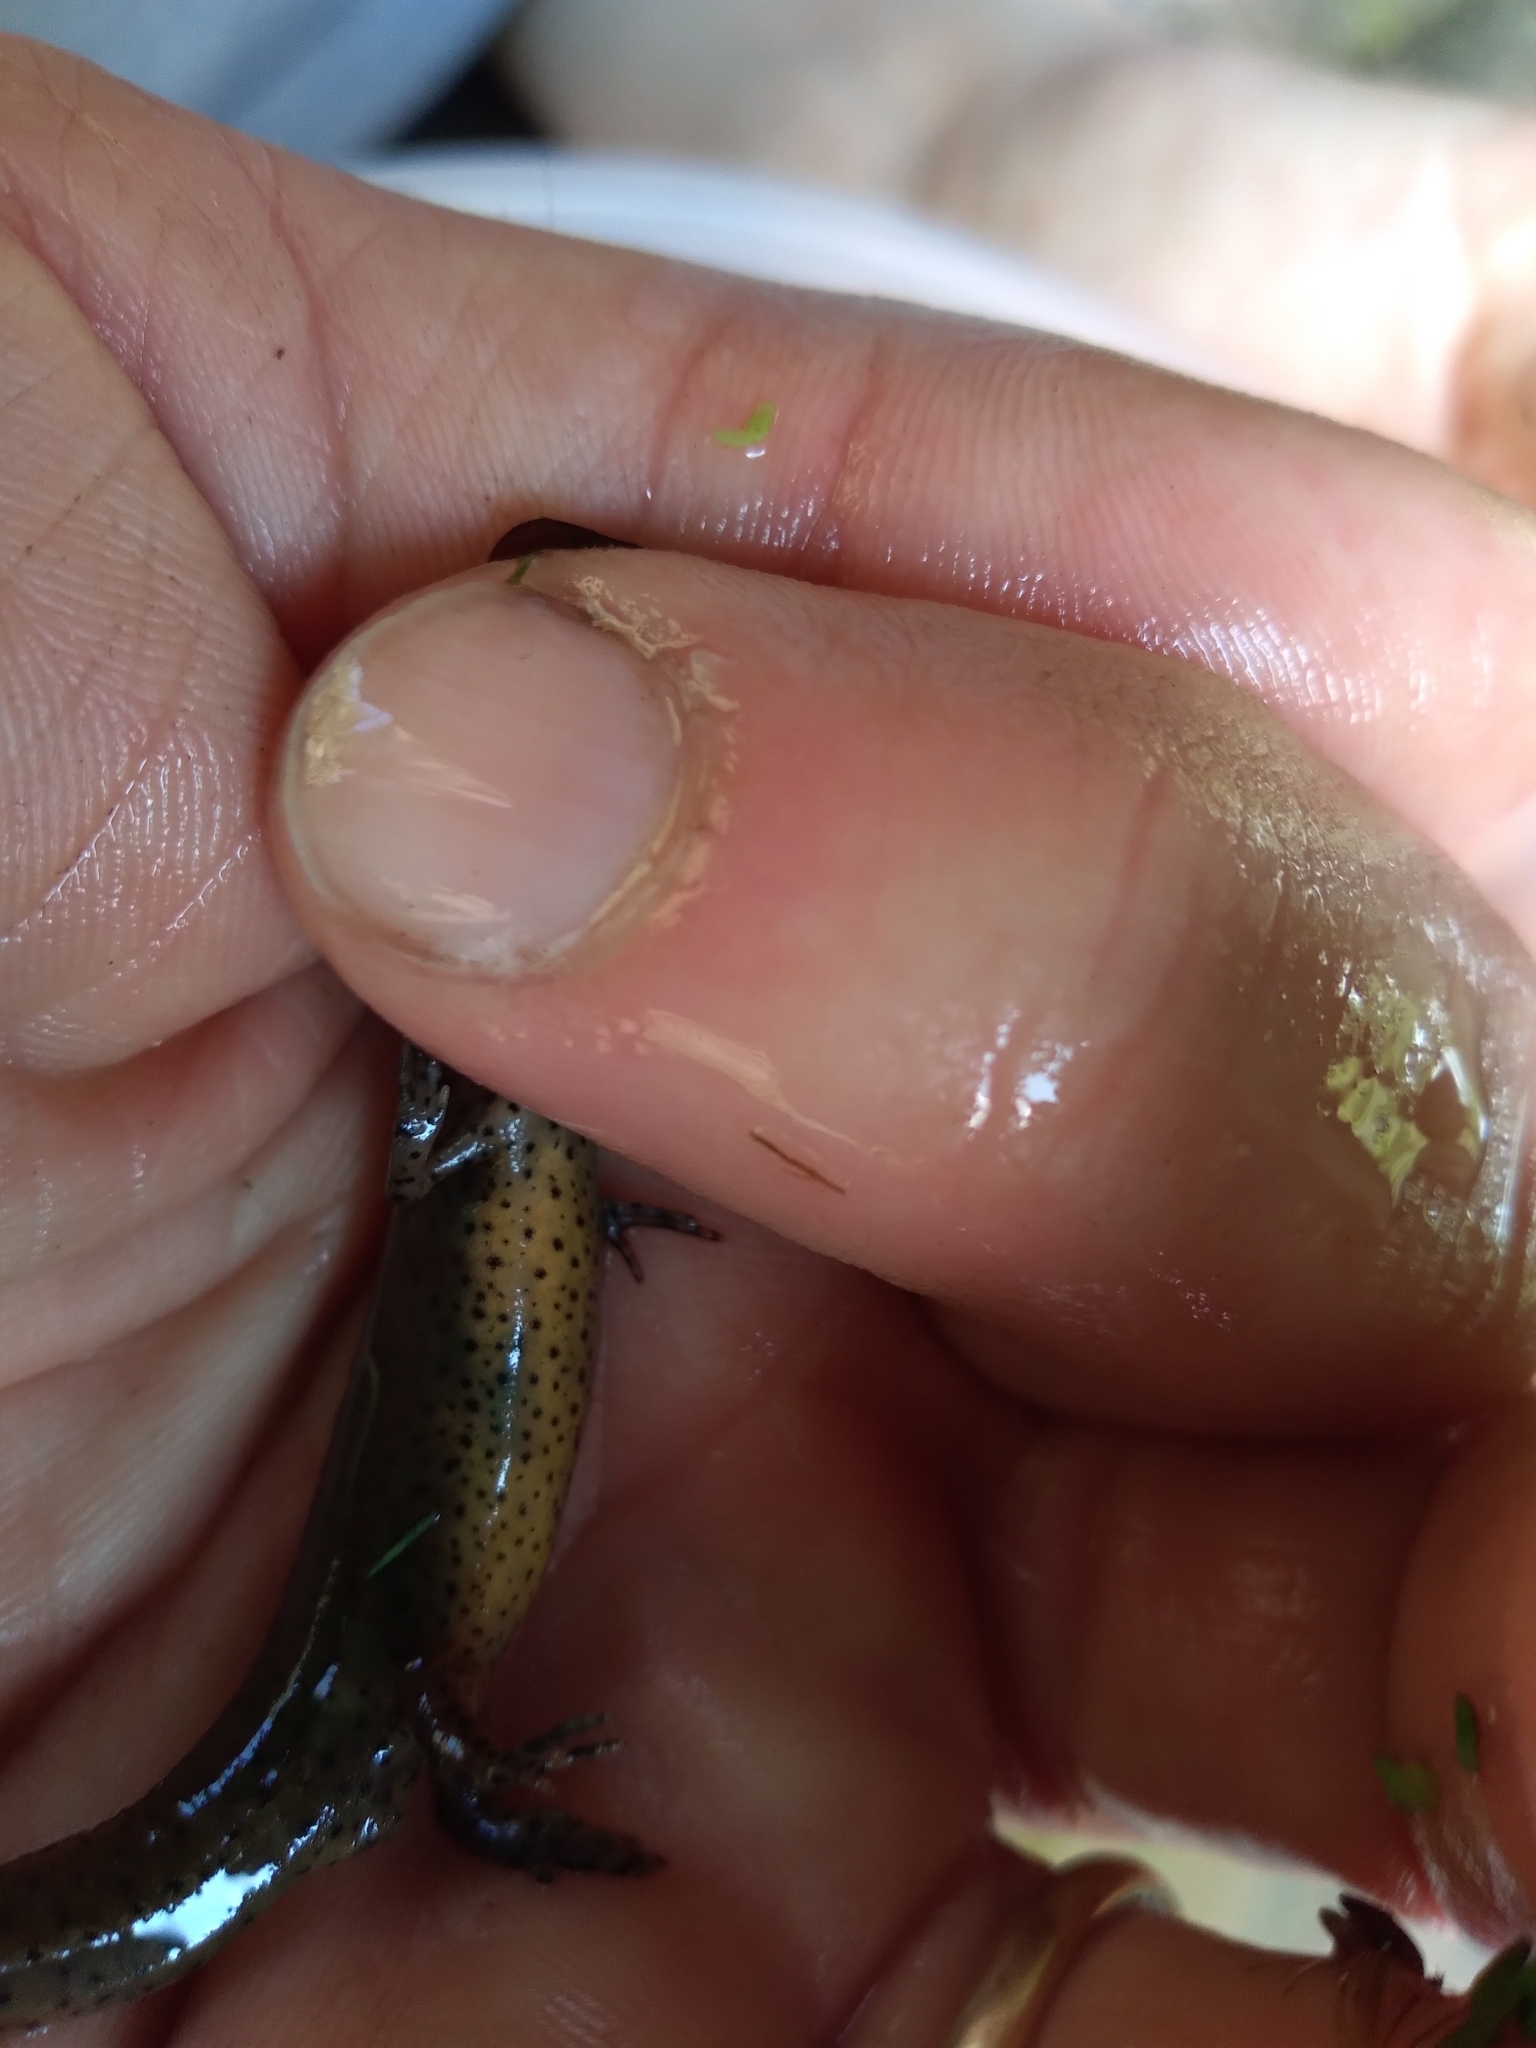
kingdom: Animalia
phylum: Chordata
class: Amphibia
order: Caudata
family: Salamandridae
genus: Notophthalmus
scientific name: Notophthalmus viridescens
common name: Eastern newt
